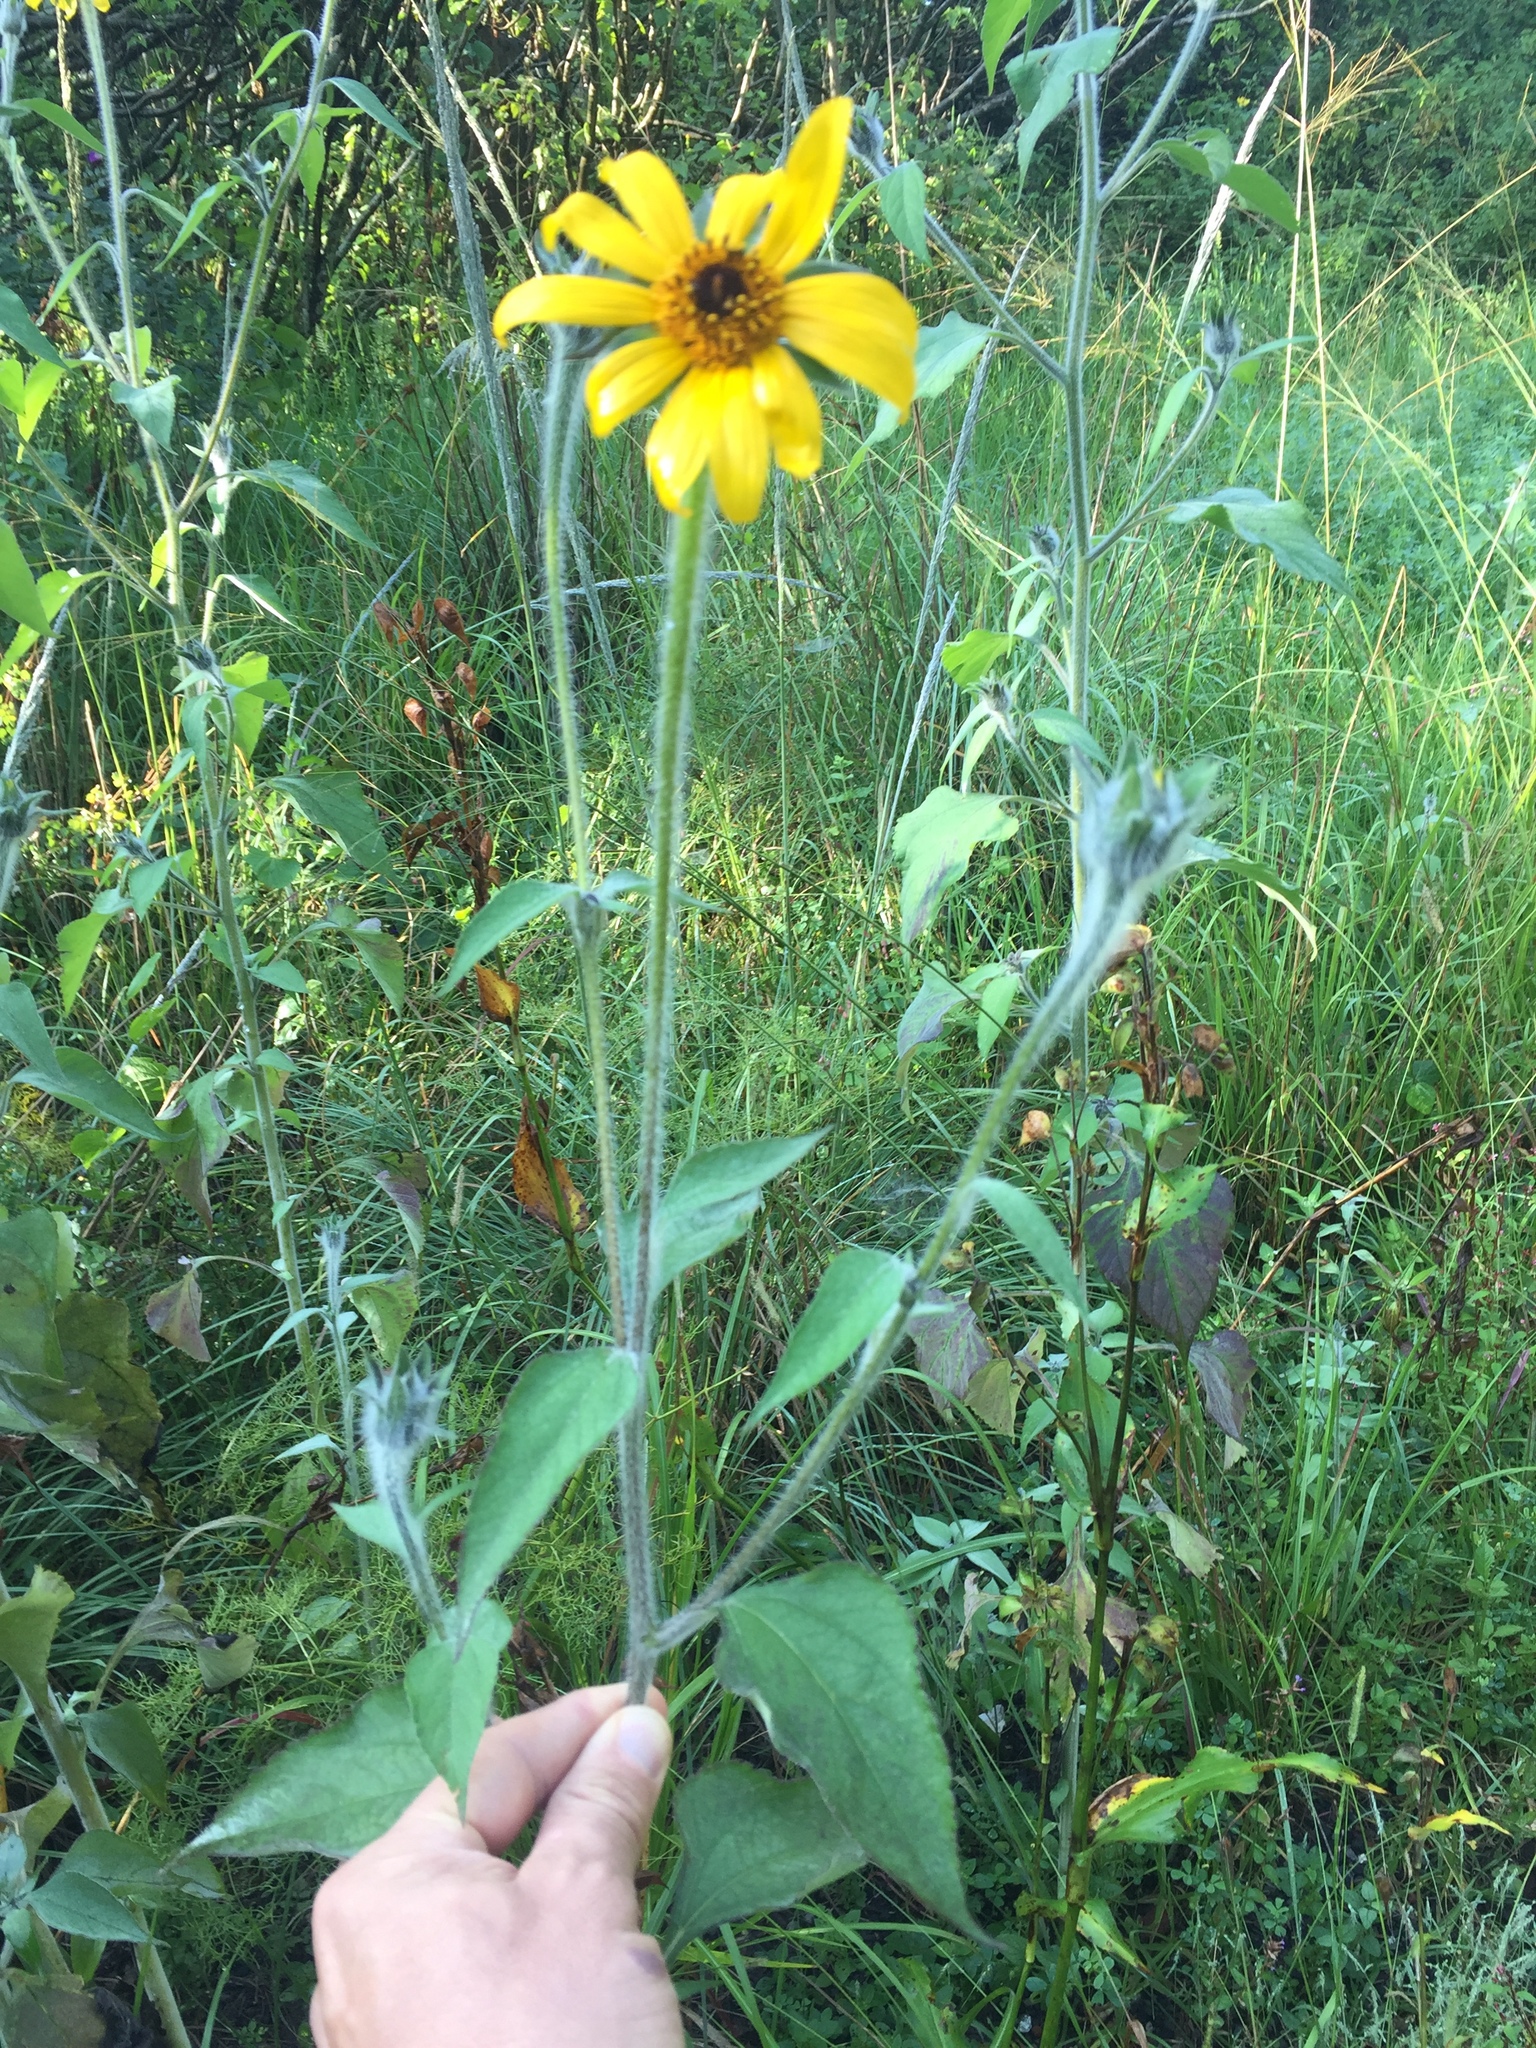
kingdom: Plantae
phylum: Tracheophyta
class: Magnoliopsida
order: Asterales
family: Asteraceae
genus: Tithonia
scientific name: Tithonia tubaeformis
